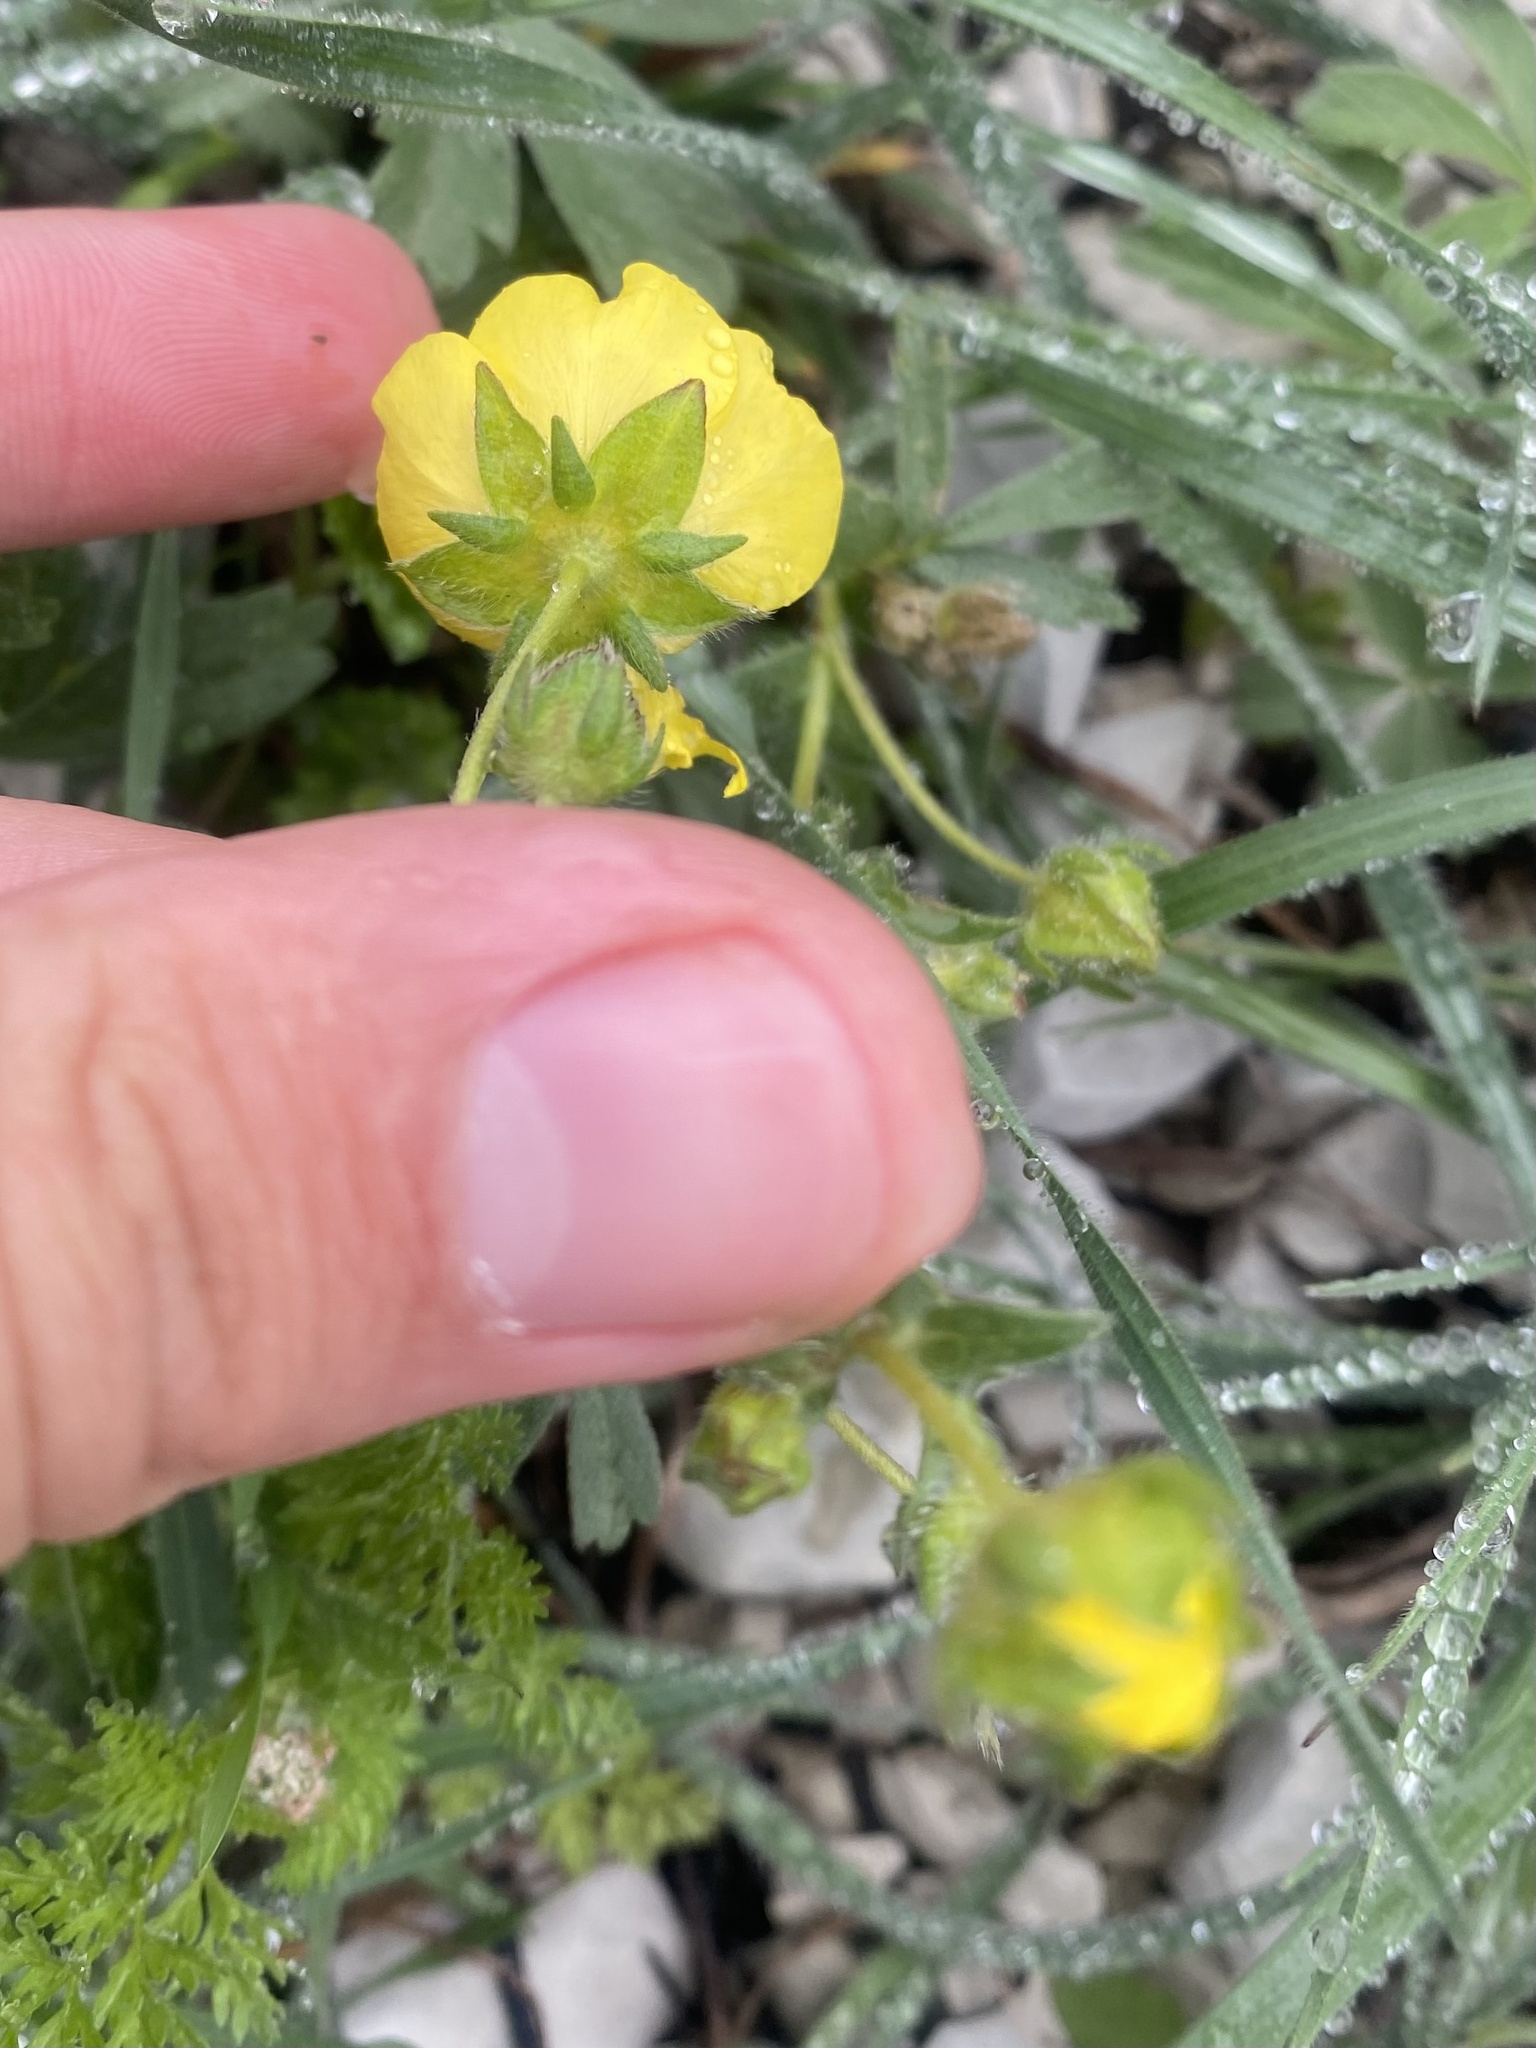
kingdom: Plantae
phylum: Tracheophyta
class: Magnoliopsida
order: Rosales
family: Rosaceae
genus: Potentilla
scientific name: Potentilla sphenophylla
